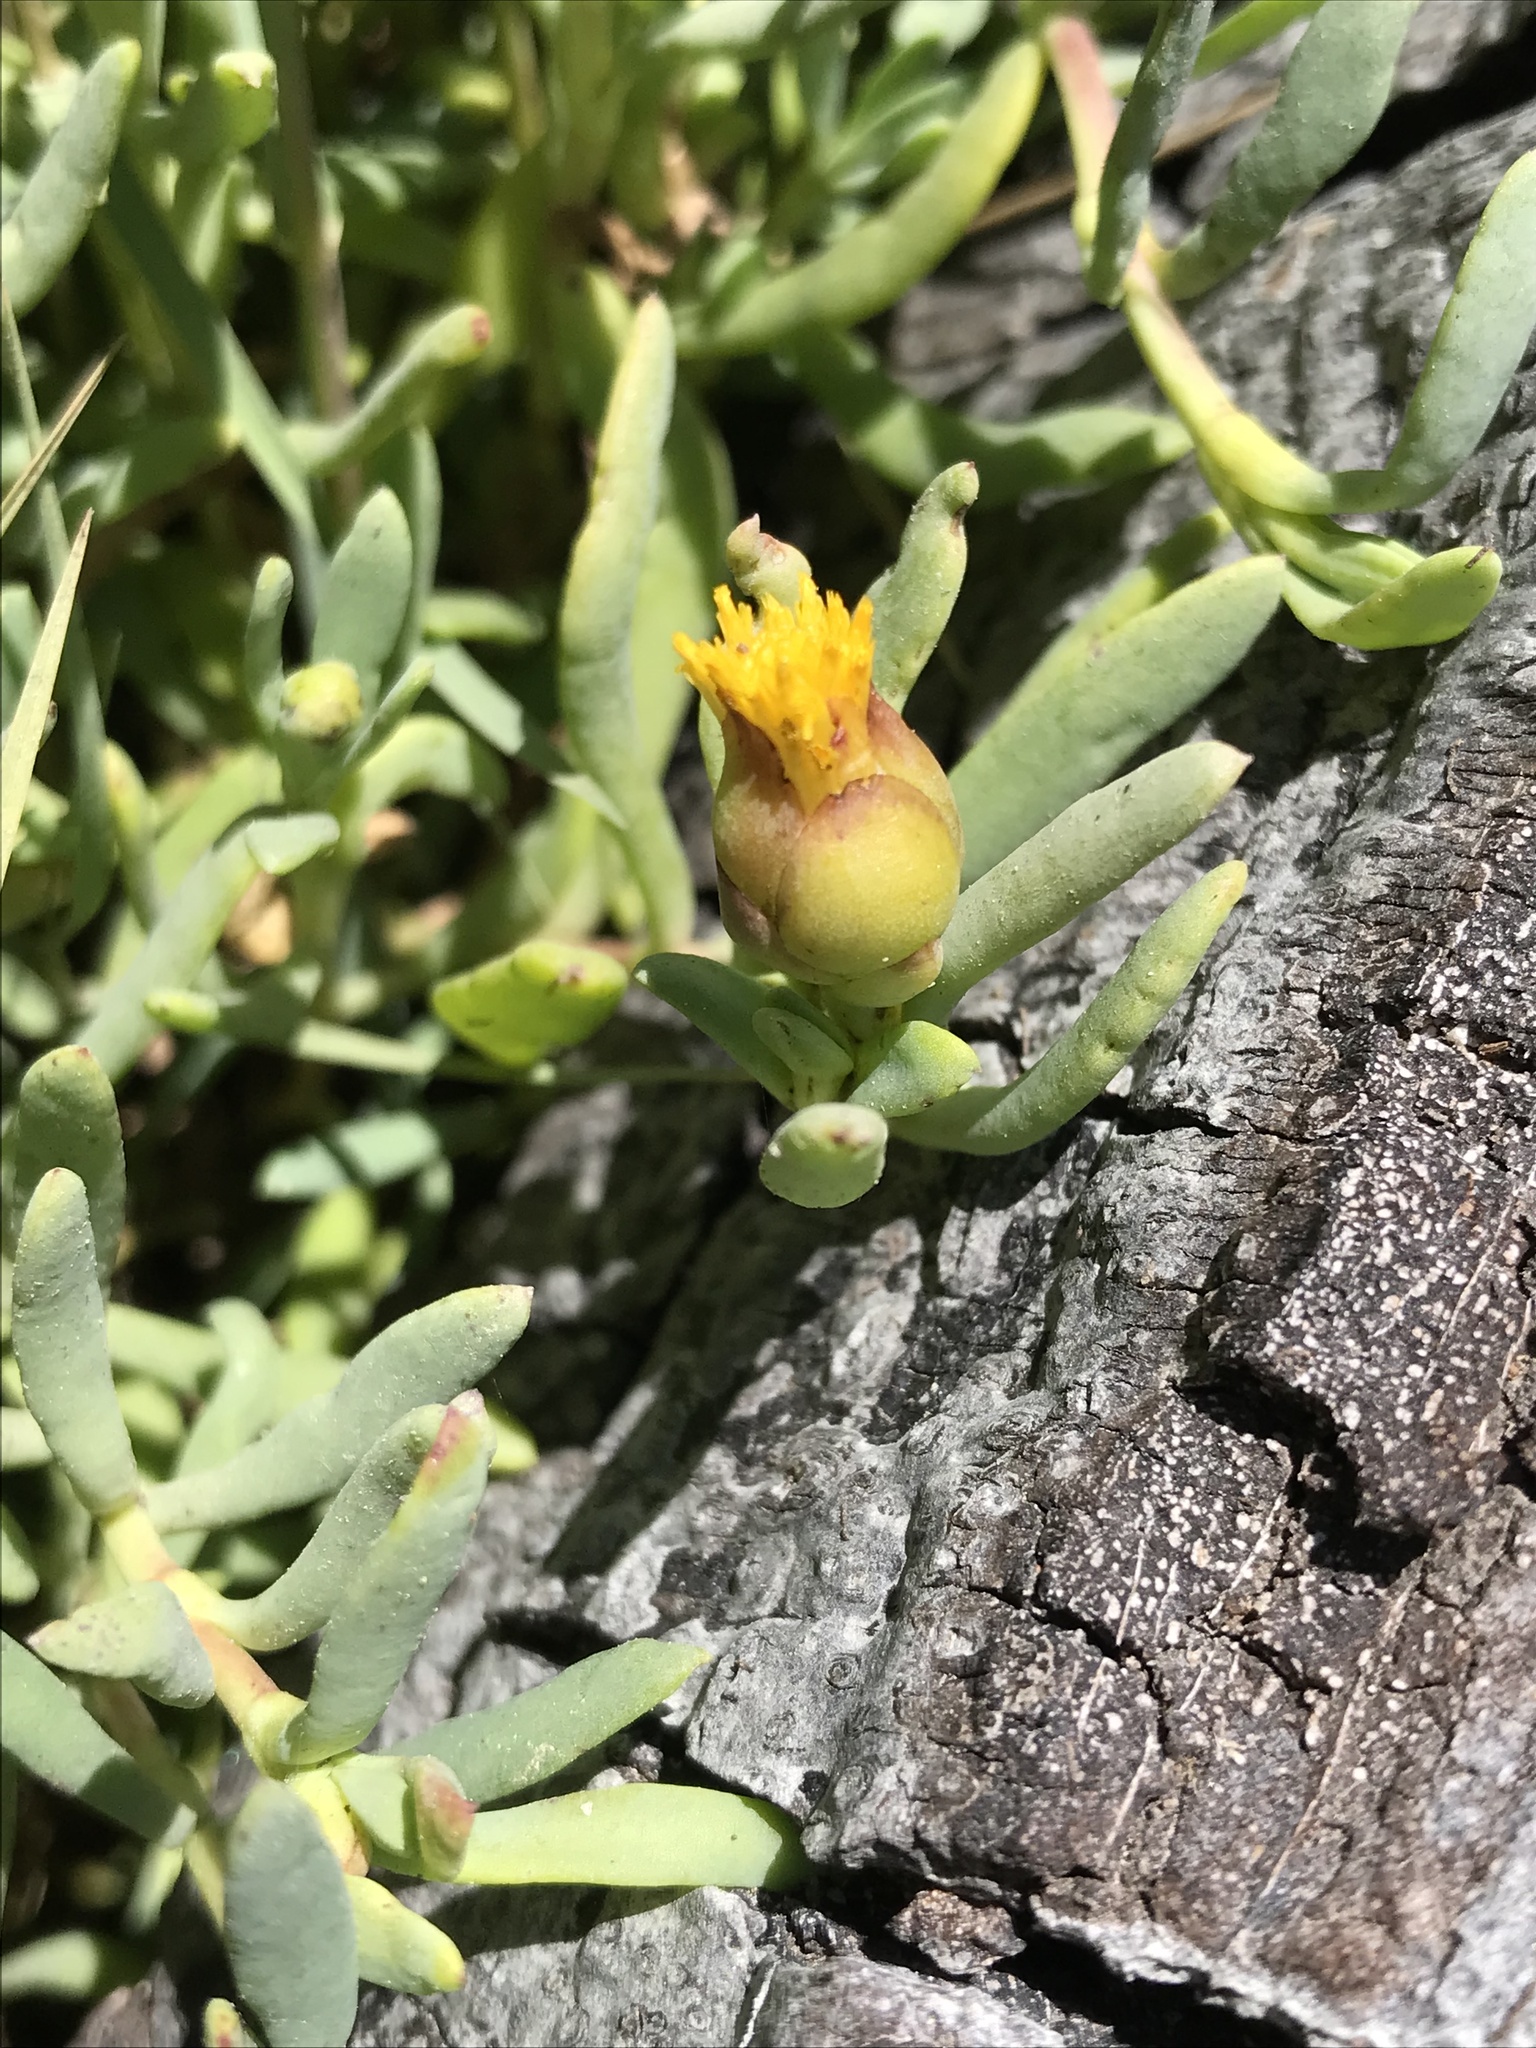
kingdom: Plantae
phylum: Tracheophyta
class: Magnoliopsida
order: Asterales
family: Asteraceae
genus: Jaumea
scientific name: Jaumea carnosa
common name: Fleshy jaumea
